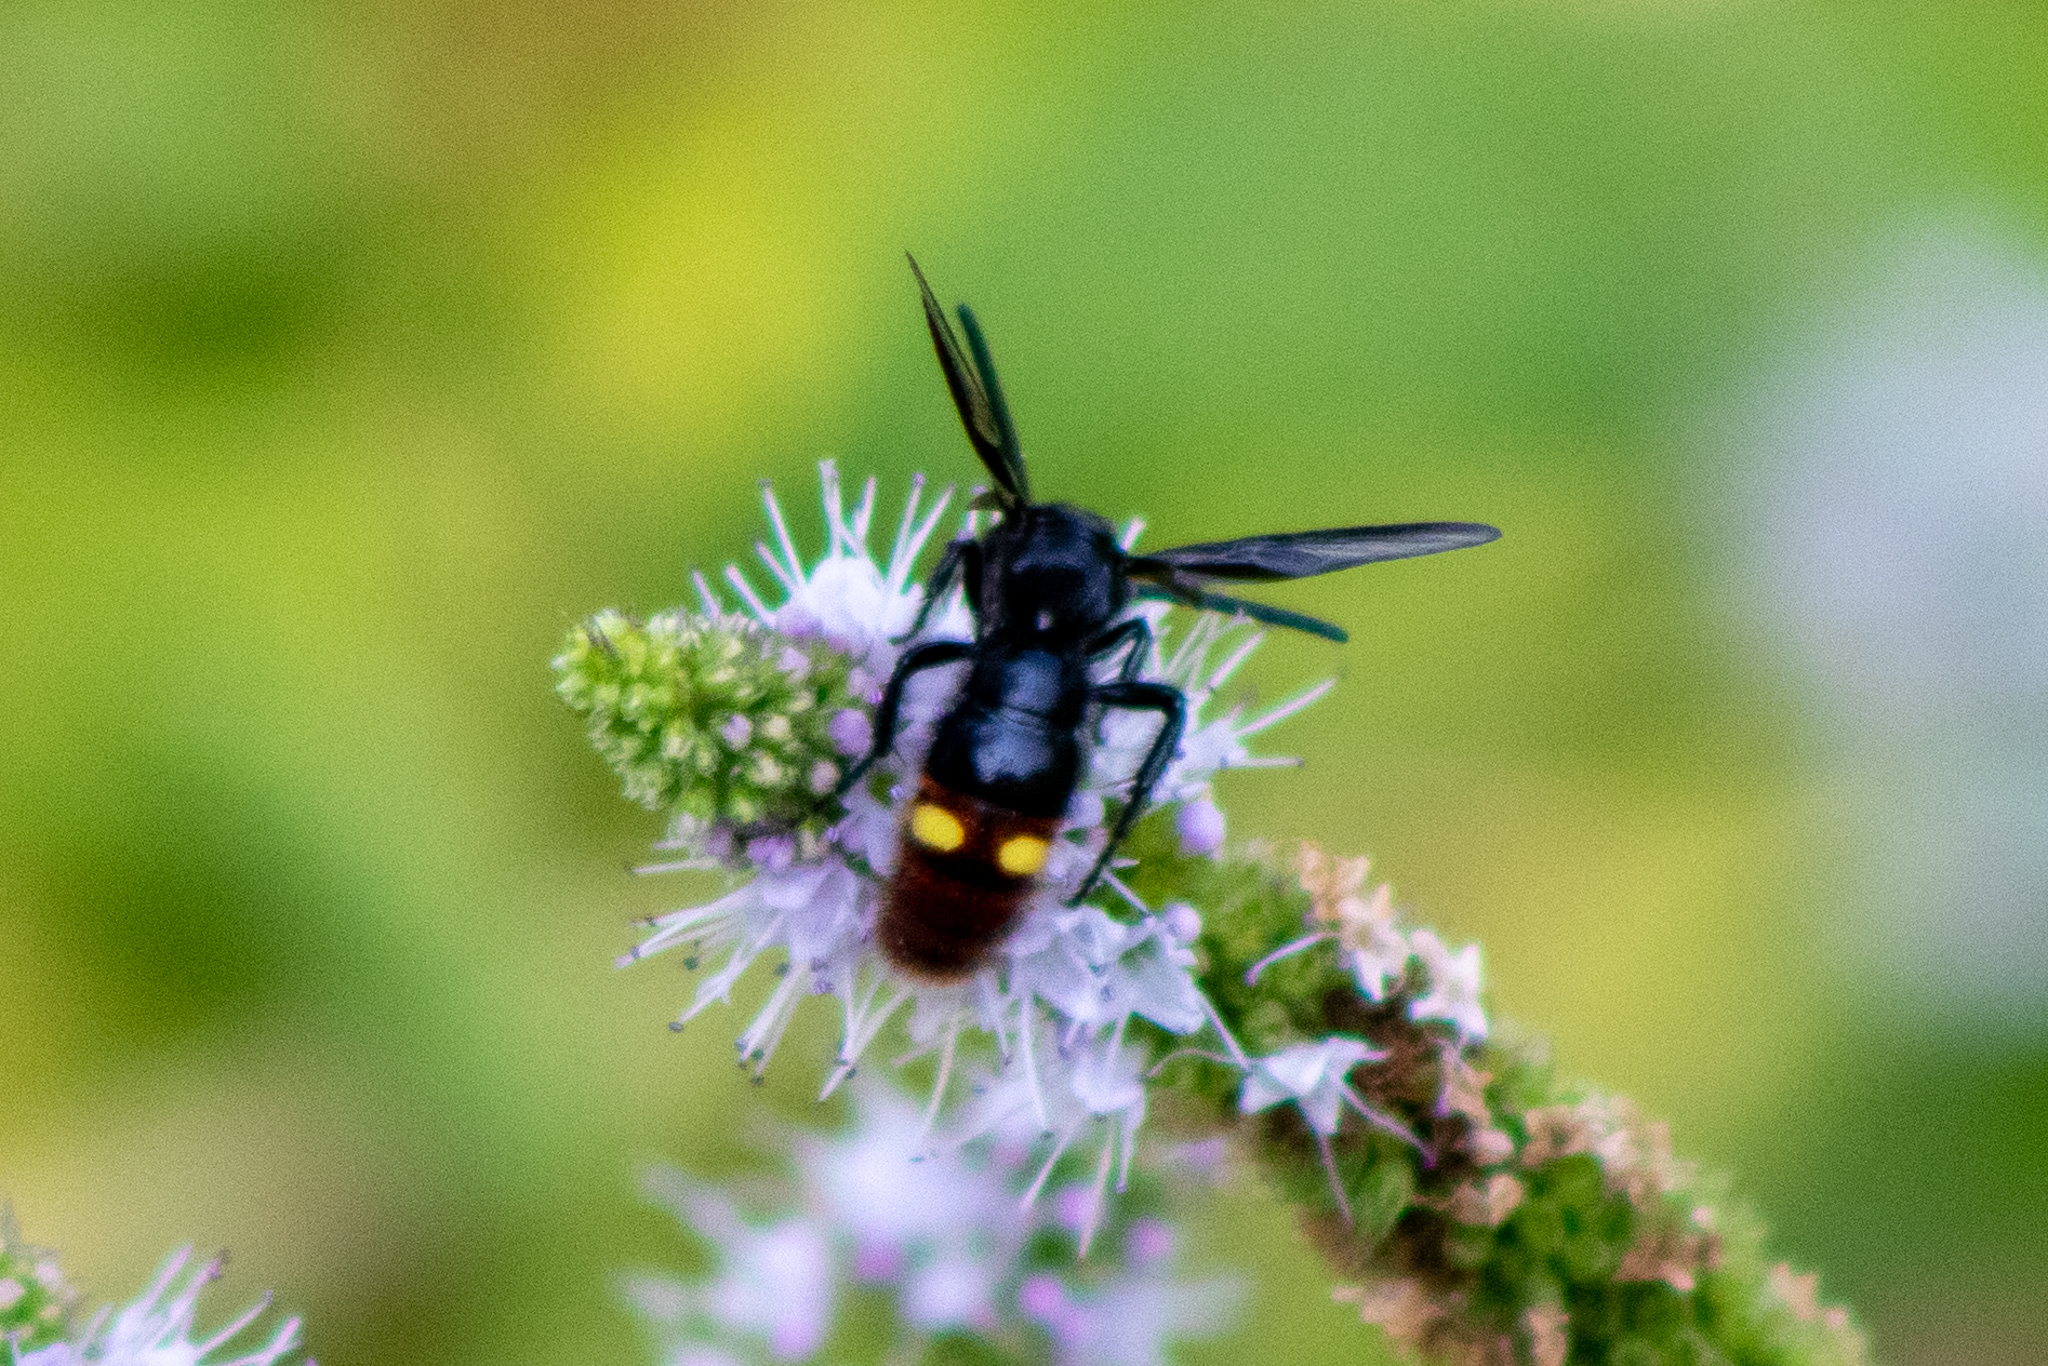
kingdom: Animalia
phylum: Arthropoda
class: Insecta
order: Hymenoptera
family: Scoliidae
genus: Scolia
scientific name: Scolia dubia
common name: Blue-winged scoliid wasp
